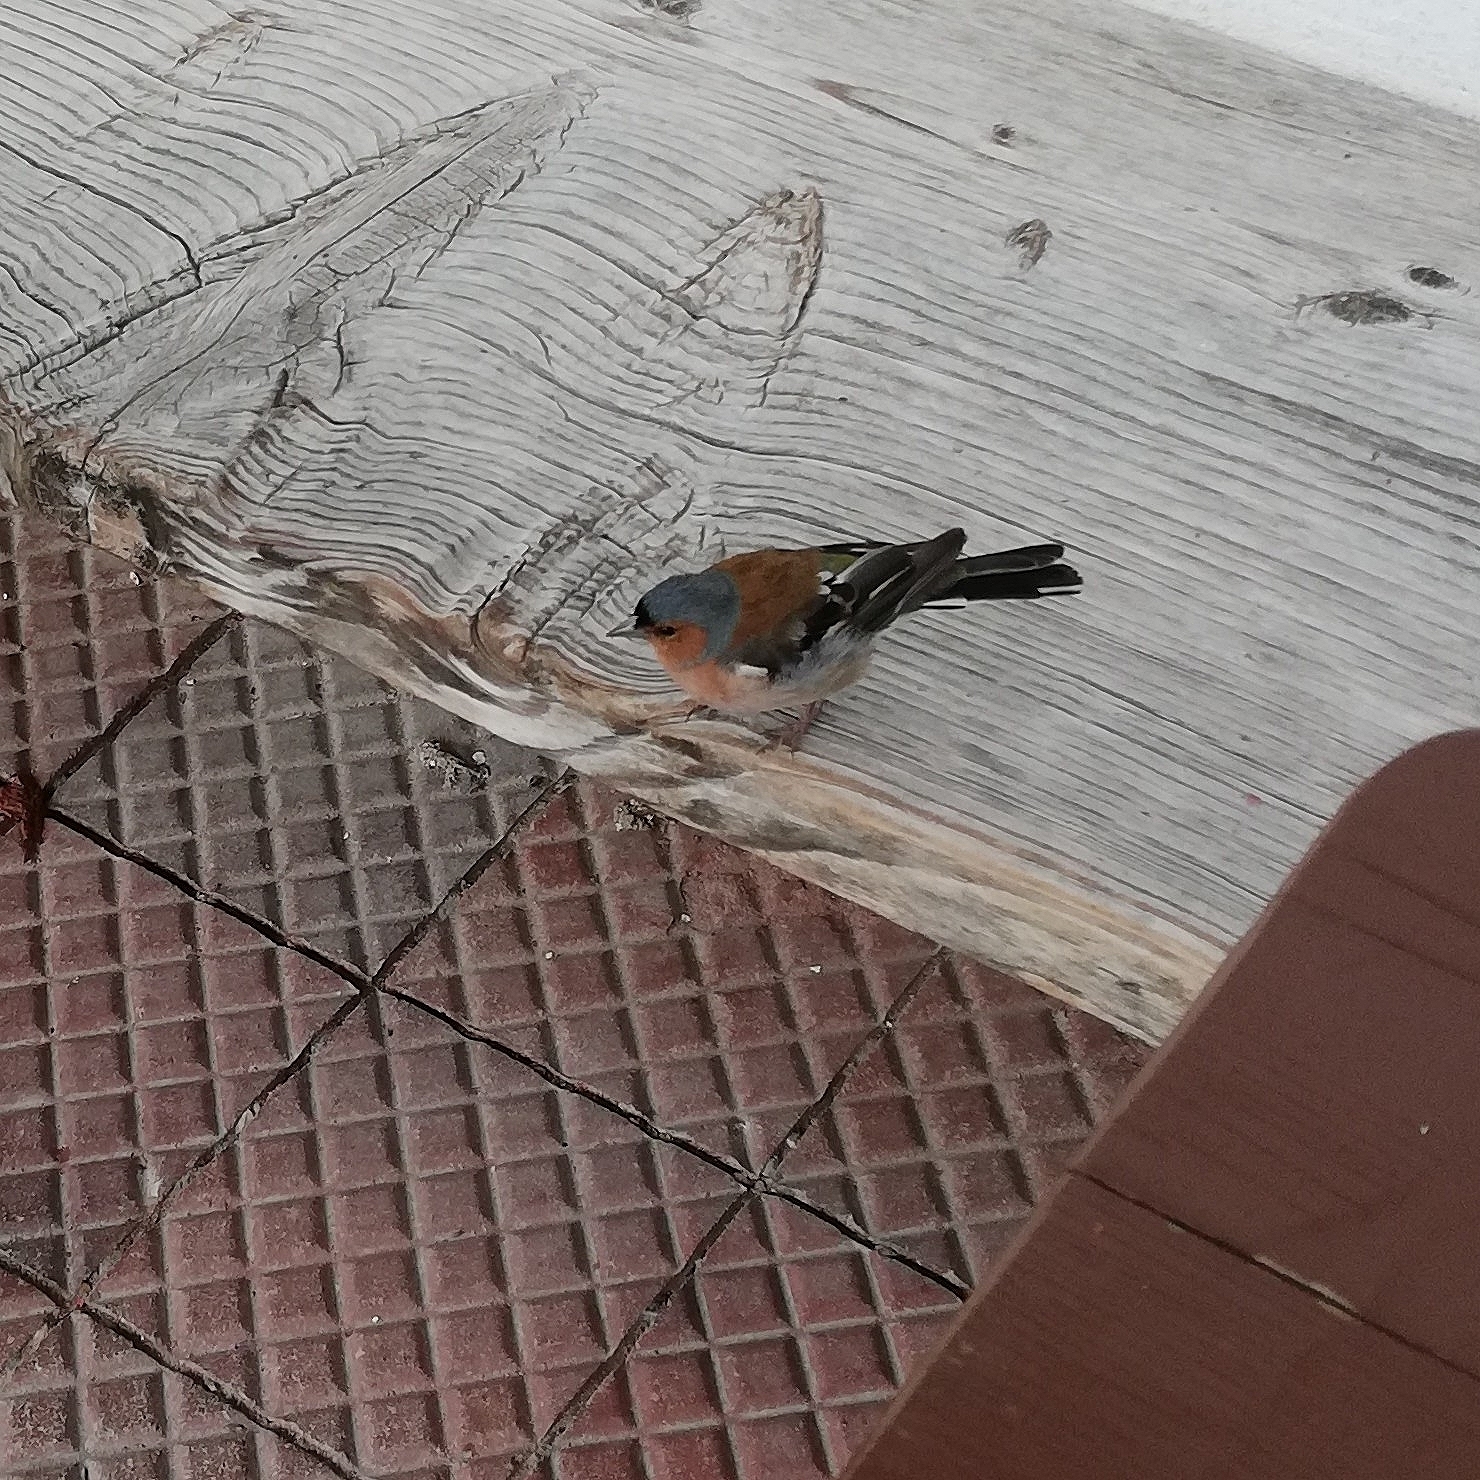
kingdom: Animalia
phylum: Chordata
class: Aves
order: Passeriformes
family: Fringillidae
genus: Fringilla
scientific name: Fringilla coelebs
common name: Common chaffinch
